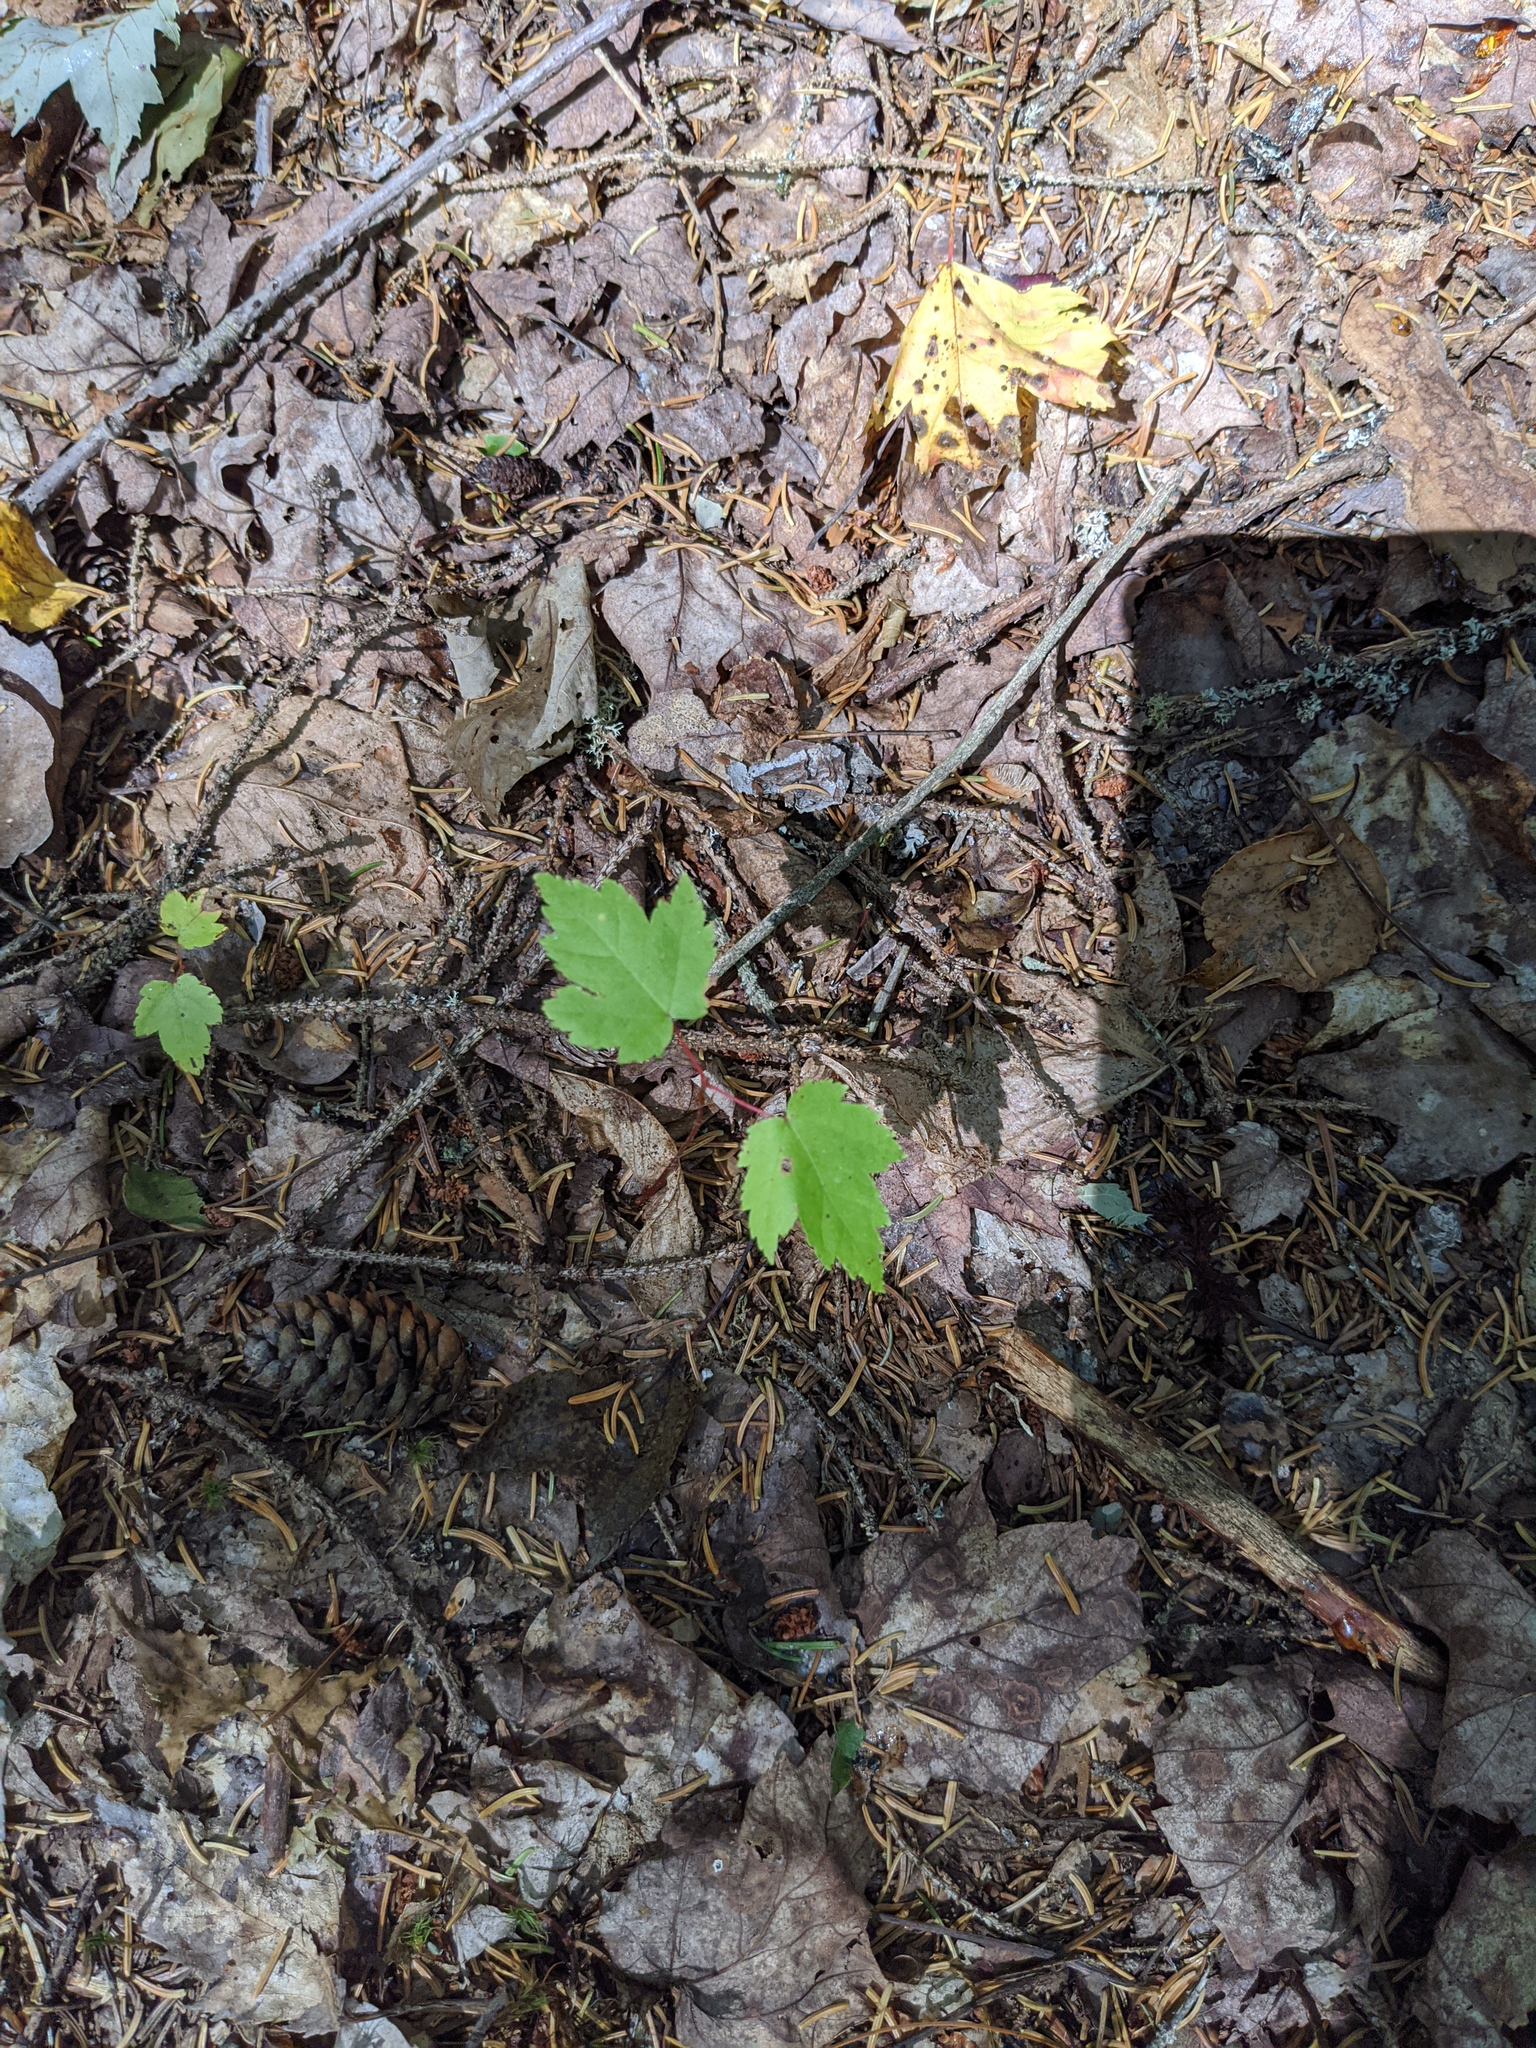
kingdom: Plantae
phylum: Tracheophyta
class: Magnoliopsida
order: Sapindales
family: Sapindaceae
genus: Acer
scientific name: Acer rubrum
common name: Red maple
